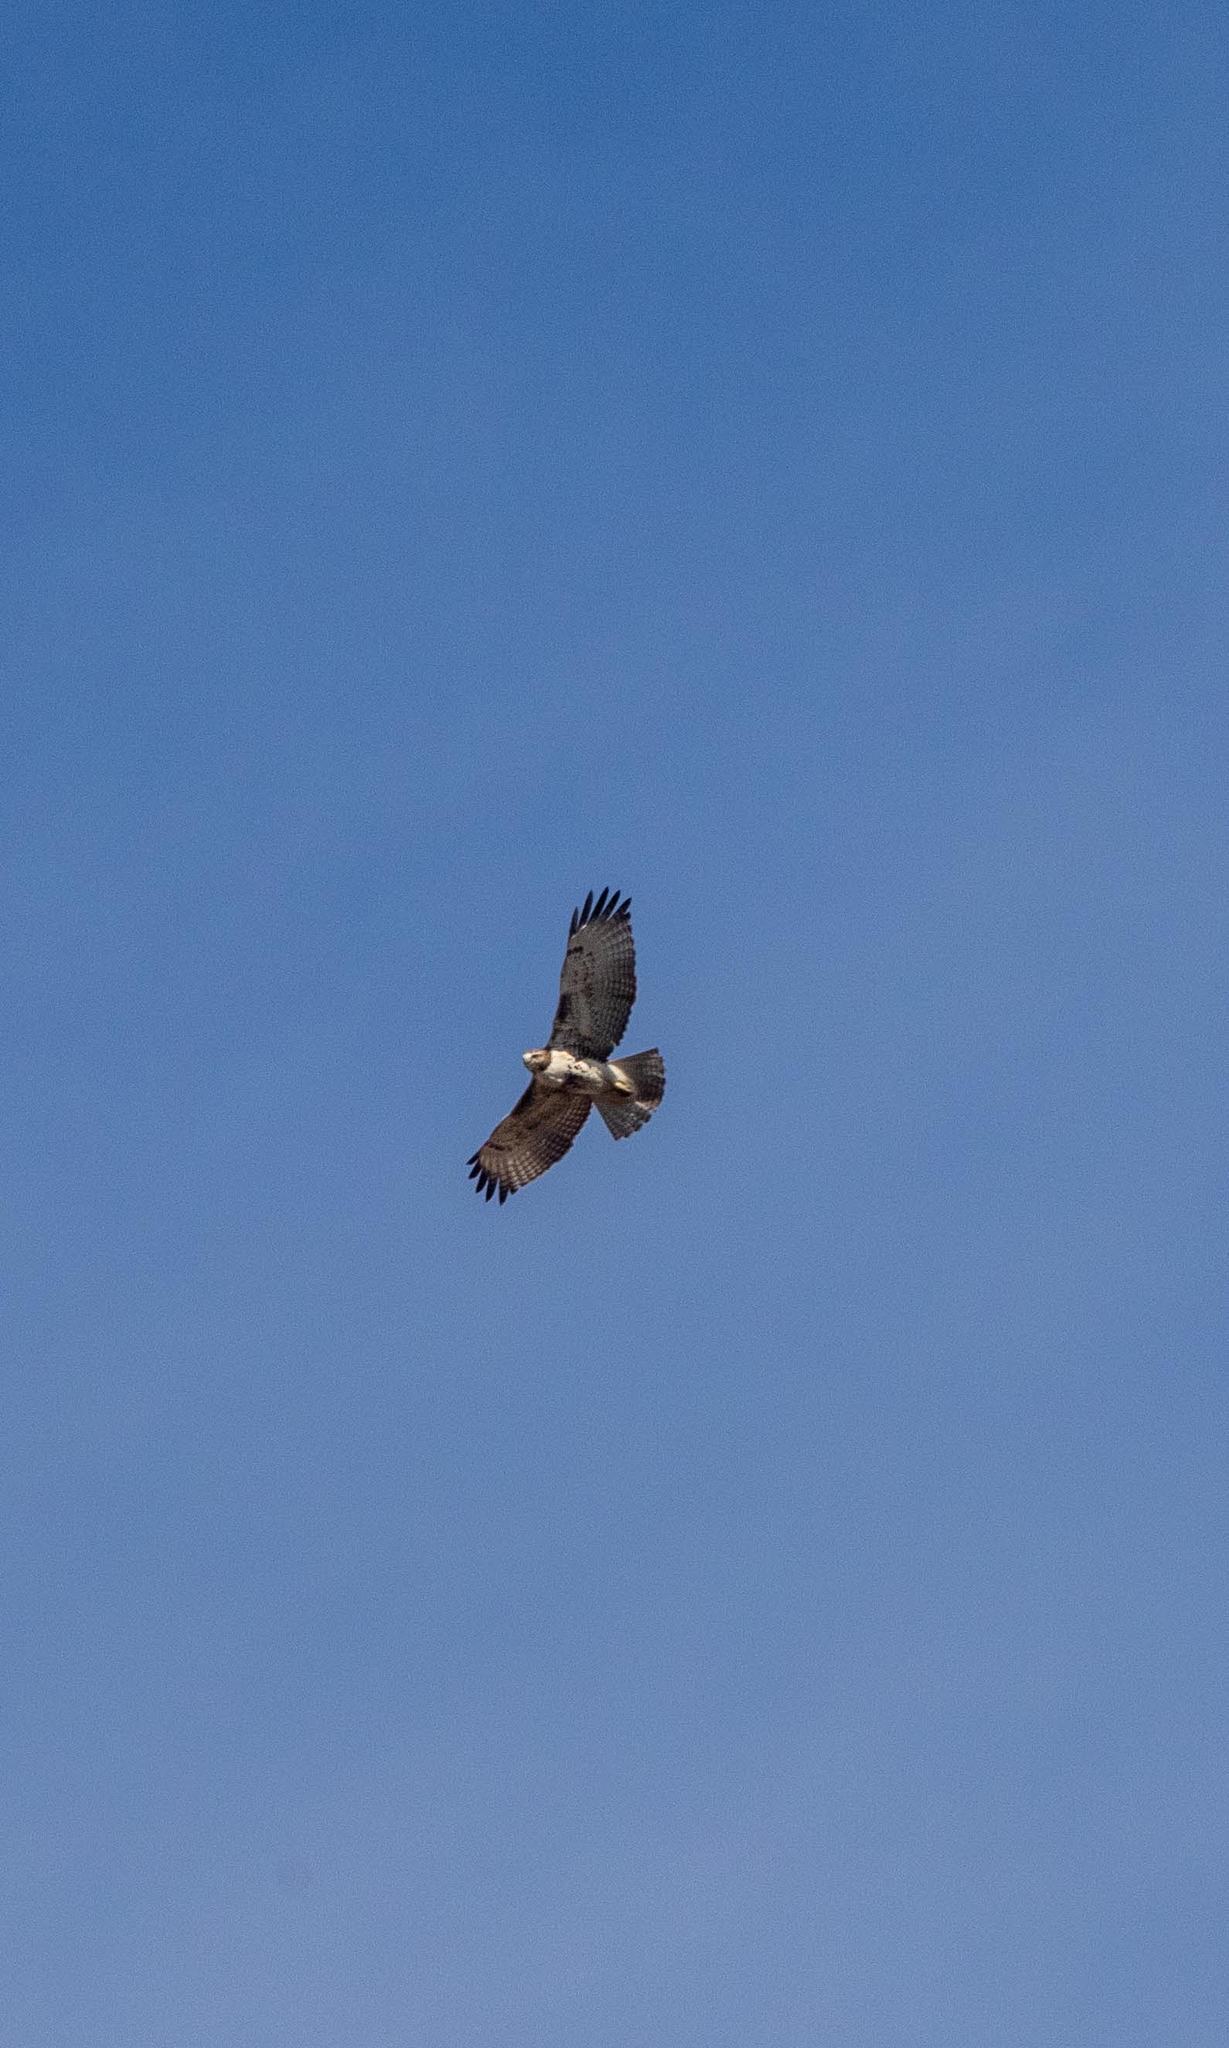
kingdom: Animalia
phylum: Chordata
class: Aves
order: Accipitriformes
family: Accipitridae
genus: Buteo
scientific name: Buteo jamaicensis
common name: Red-tailed hawk
